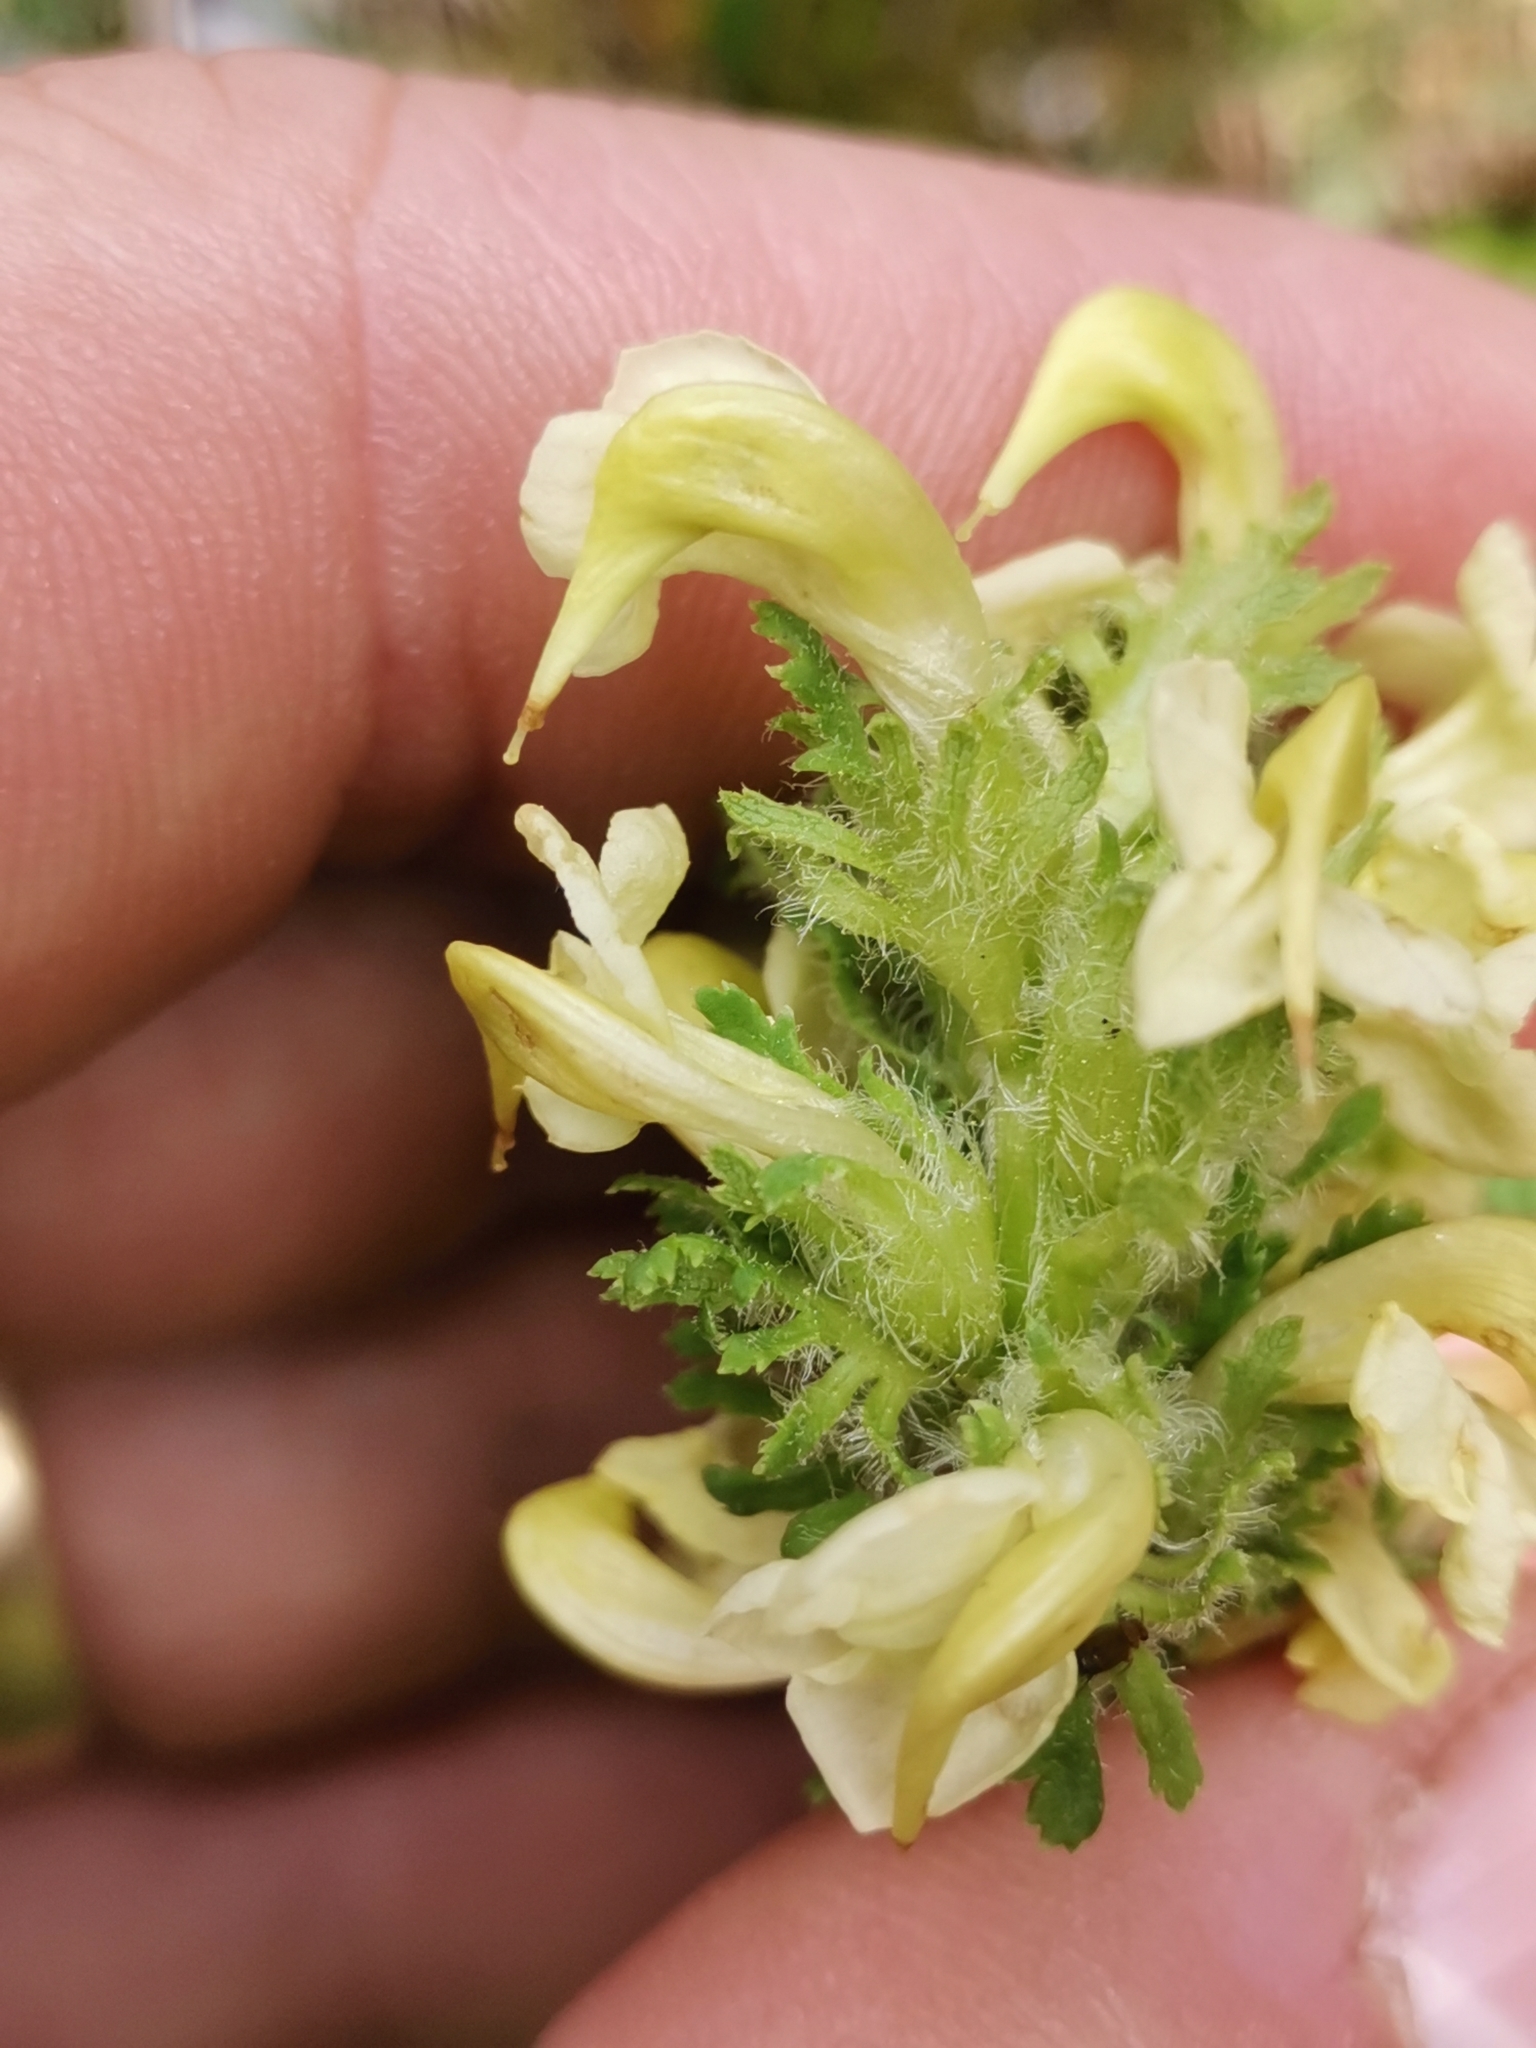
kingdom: Plantae
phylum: Tracheophyta
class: Magnoliopsida
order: Lamiales
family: Orobanchaceae
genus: Pedicularis
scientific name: Pedicularis julica
